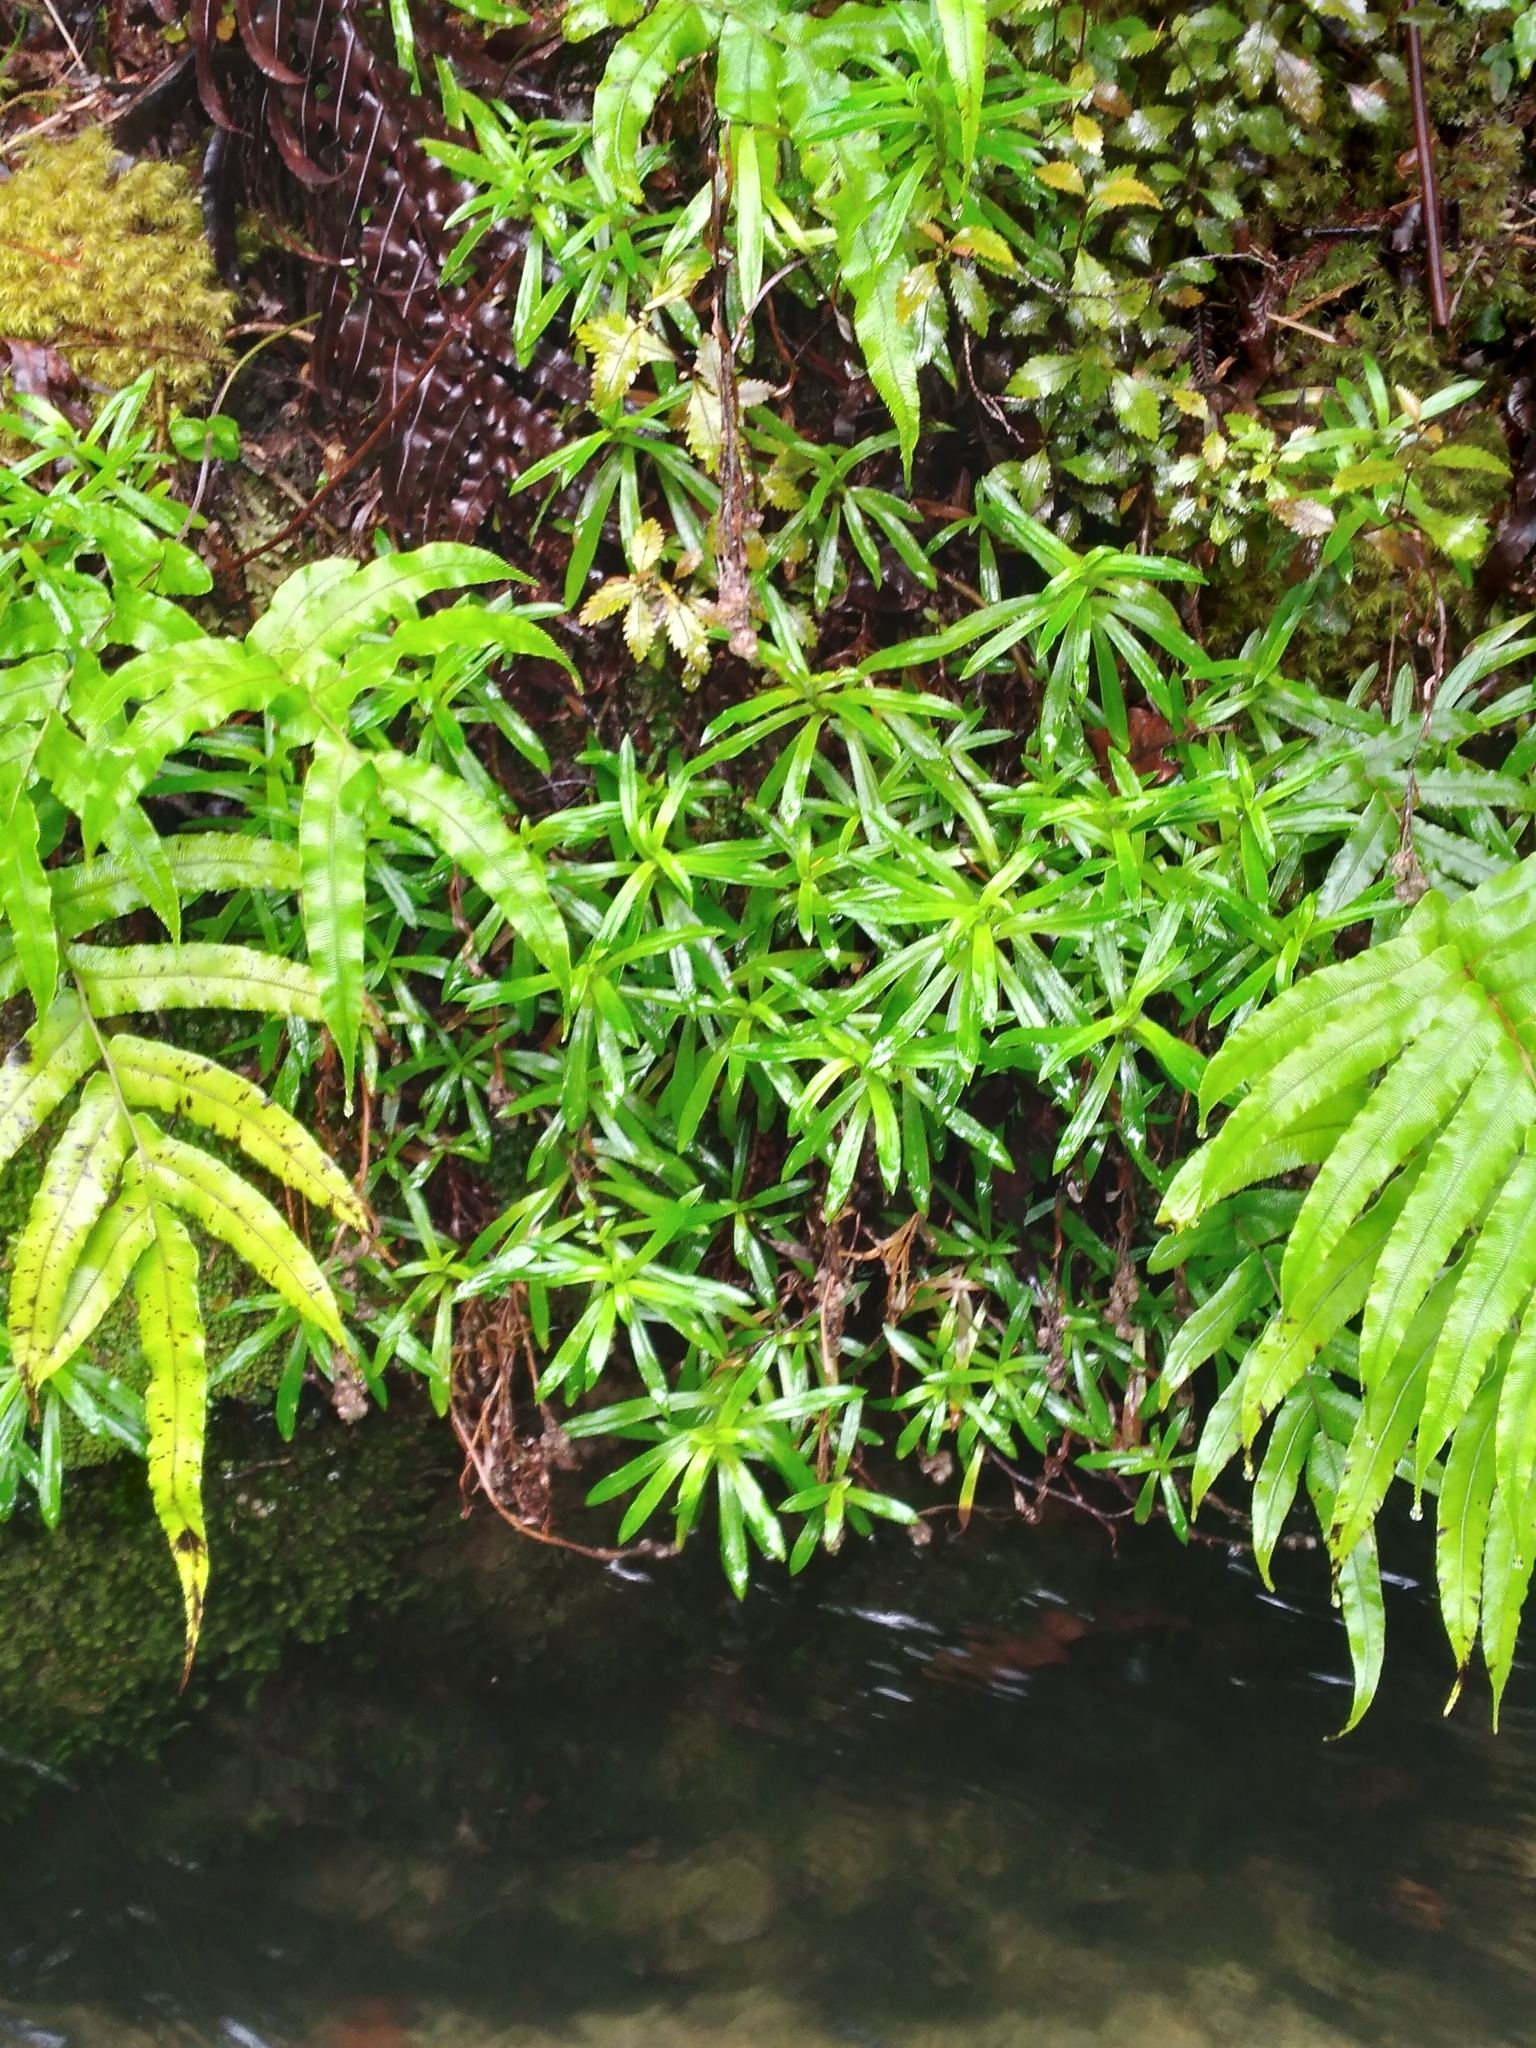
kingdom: Plantae
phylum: Tracheophyta
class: Magnoliopsida
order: Asterales
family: Asteraceae
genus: Anaphalioides
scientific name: Anaphalioides trinervis
